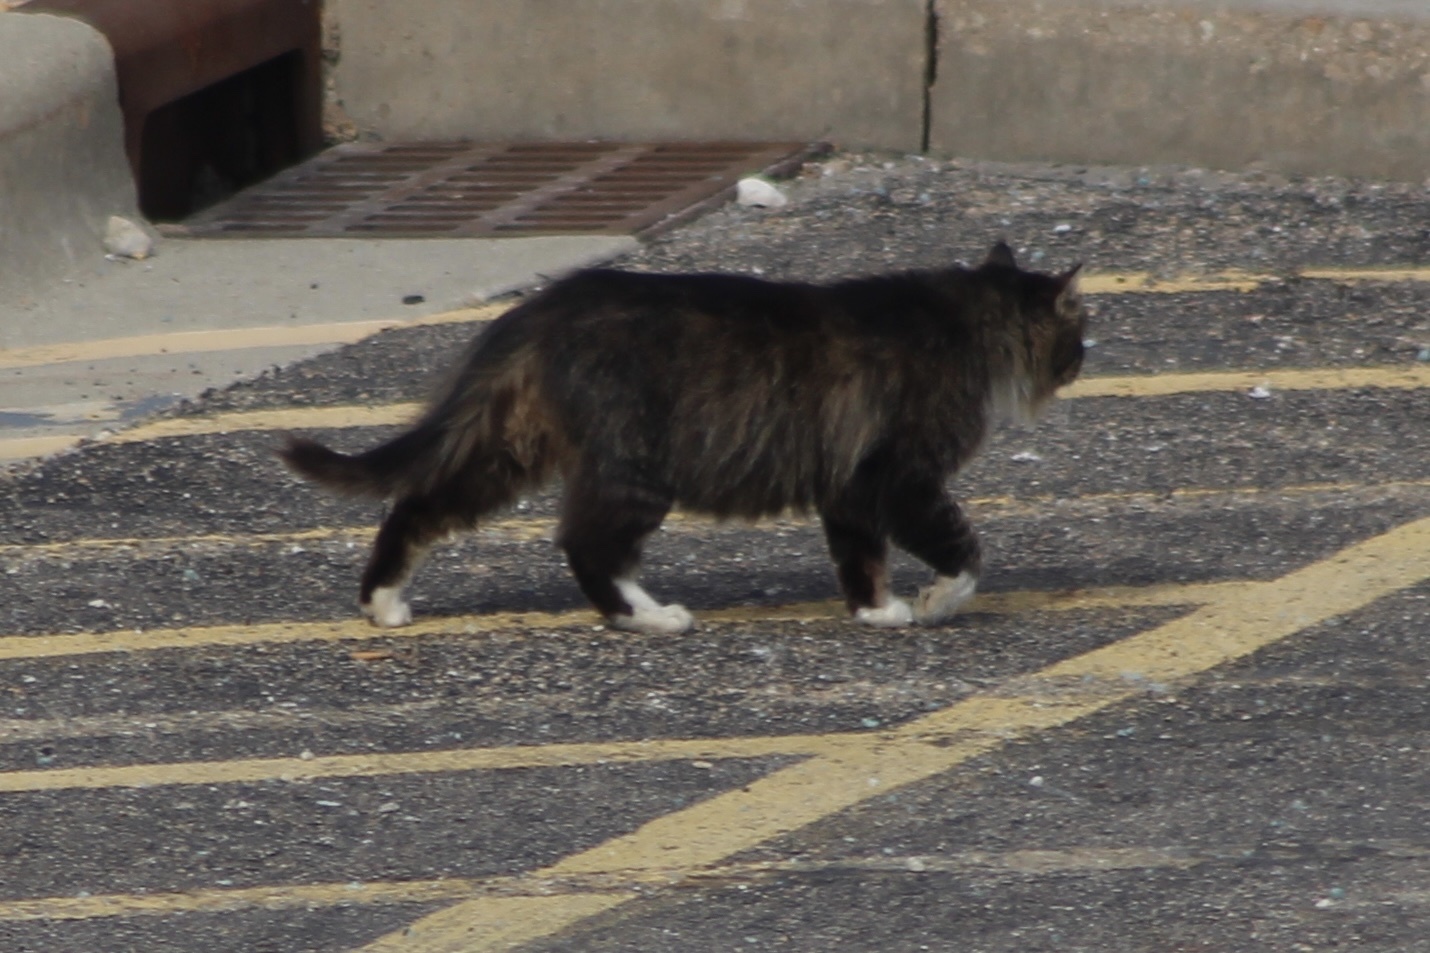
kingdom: Animalia
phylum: Chordata
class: Mammalia
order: Carnivora
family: Felidae
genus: Felis
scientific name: Felis catus
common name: Domestic cat
